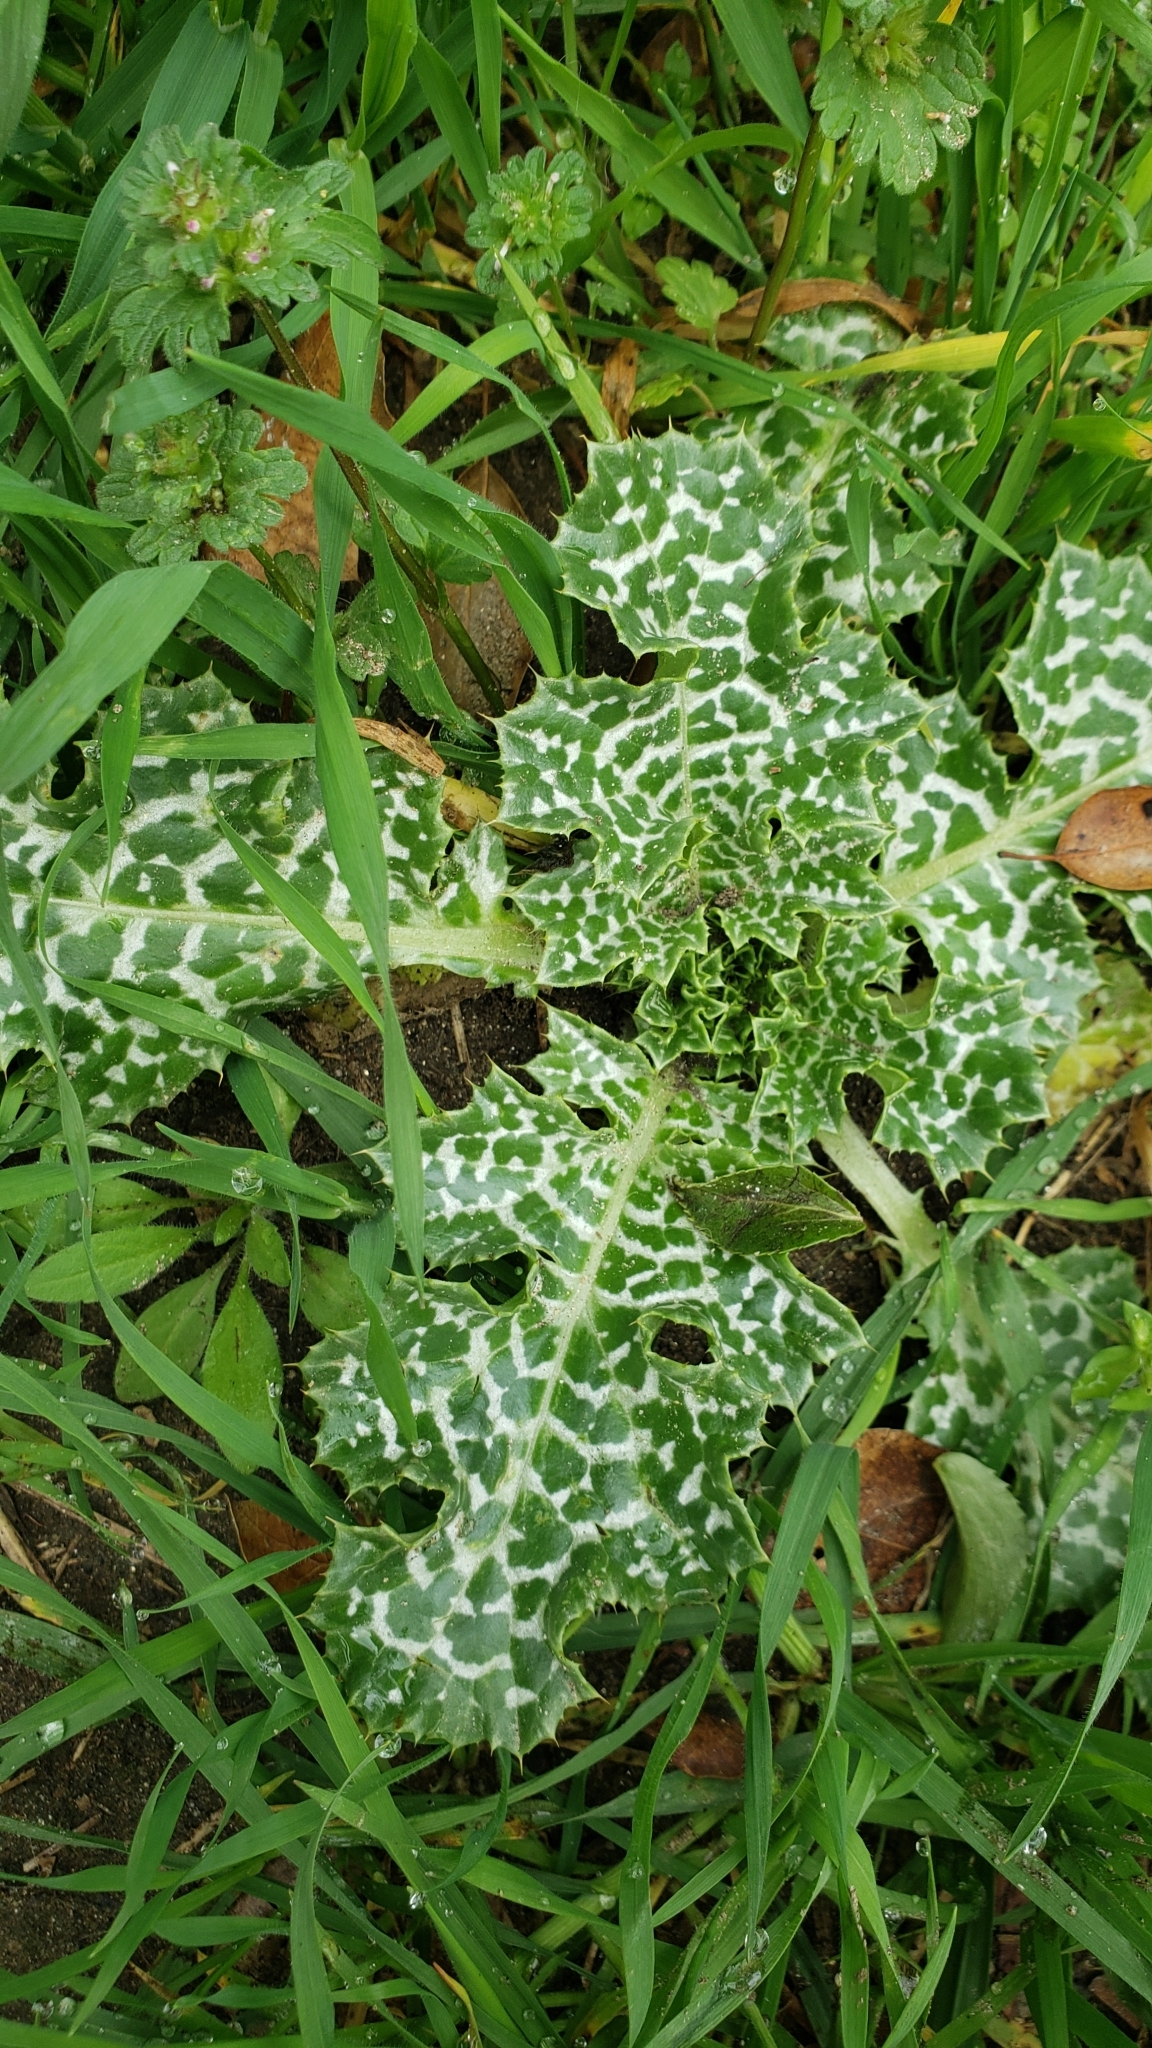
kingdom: Plantae
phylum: Tracheophyta
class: Magnoliopsida
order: Asterales
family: Asteraceae
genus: Silybum
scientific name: Silybum marianum
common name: Milk thistle
